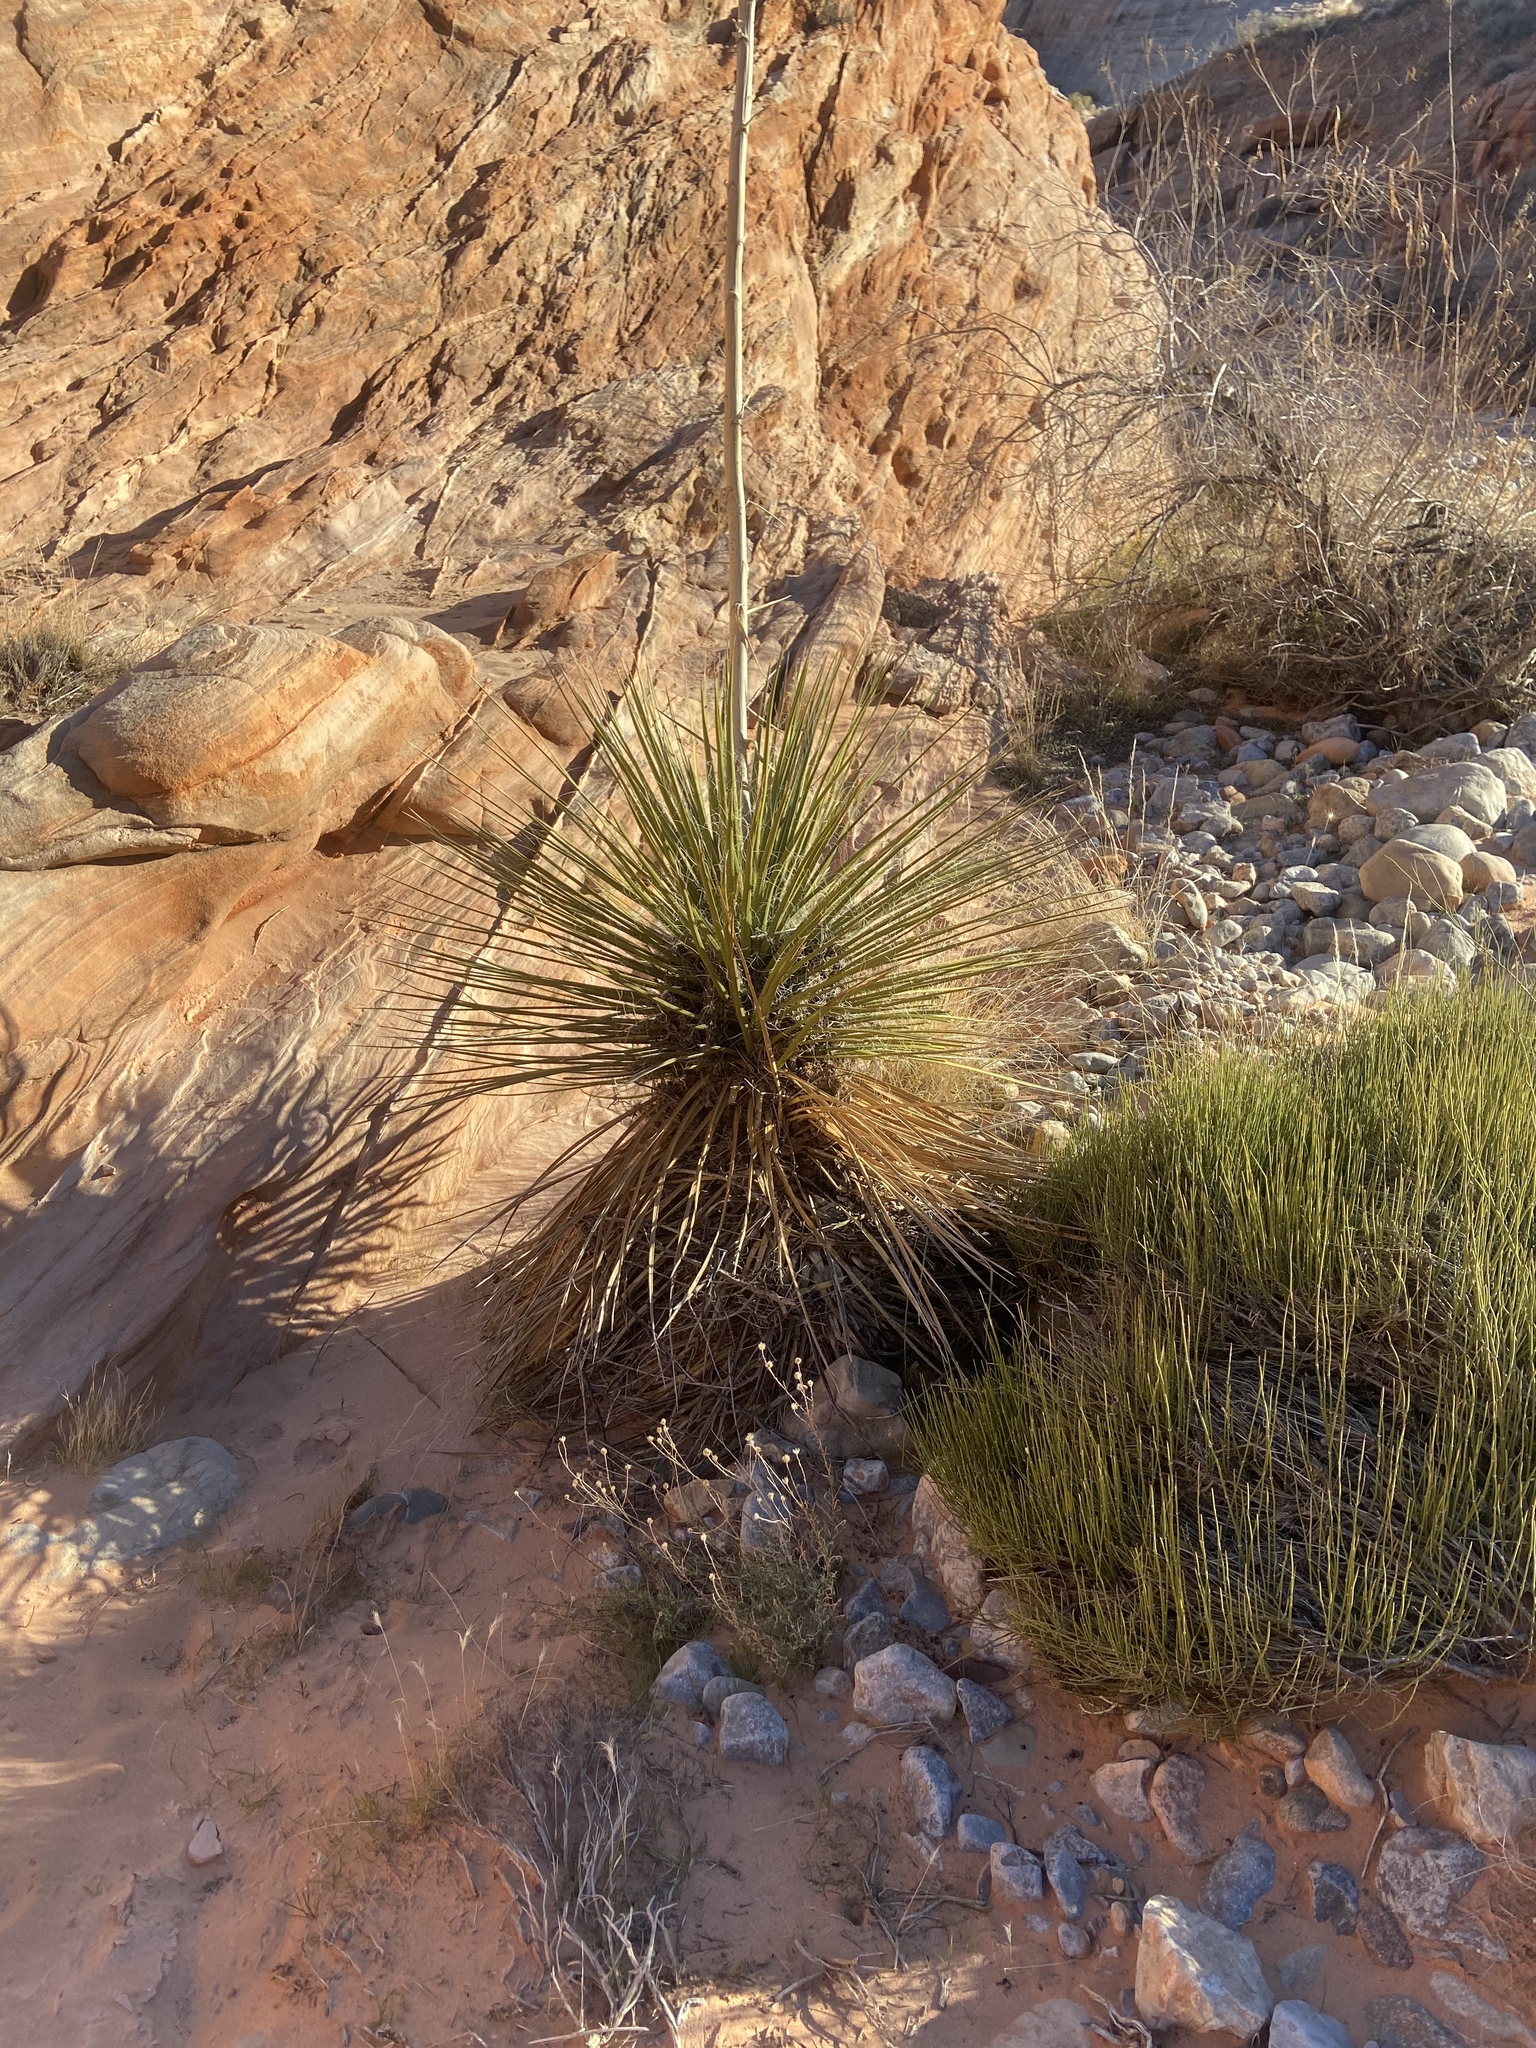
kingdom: Plantae
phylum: Tracheophyta
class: Liliopsida
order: Asparagales
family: Asparagaceae
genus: Yucca
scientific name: Yucca utahensis
